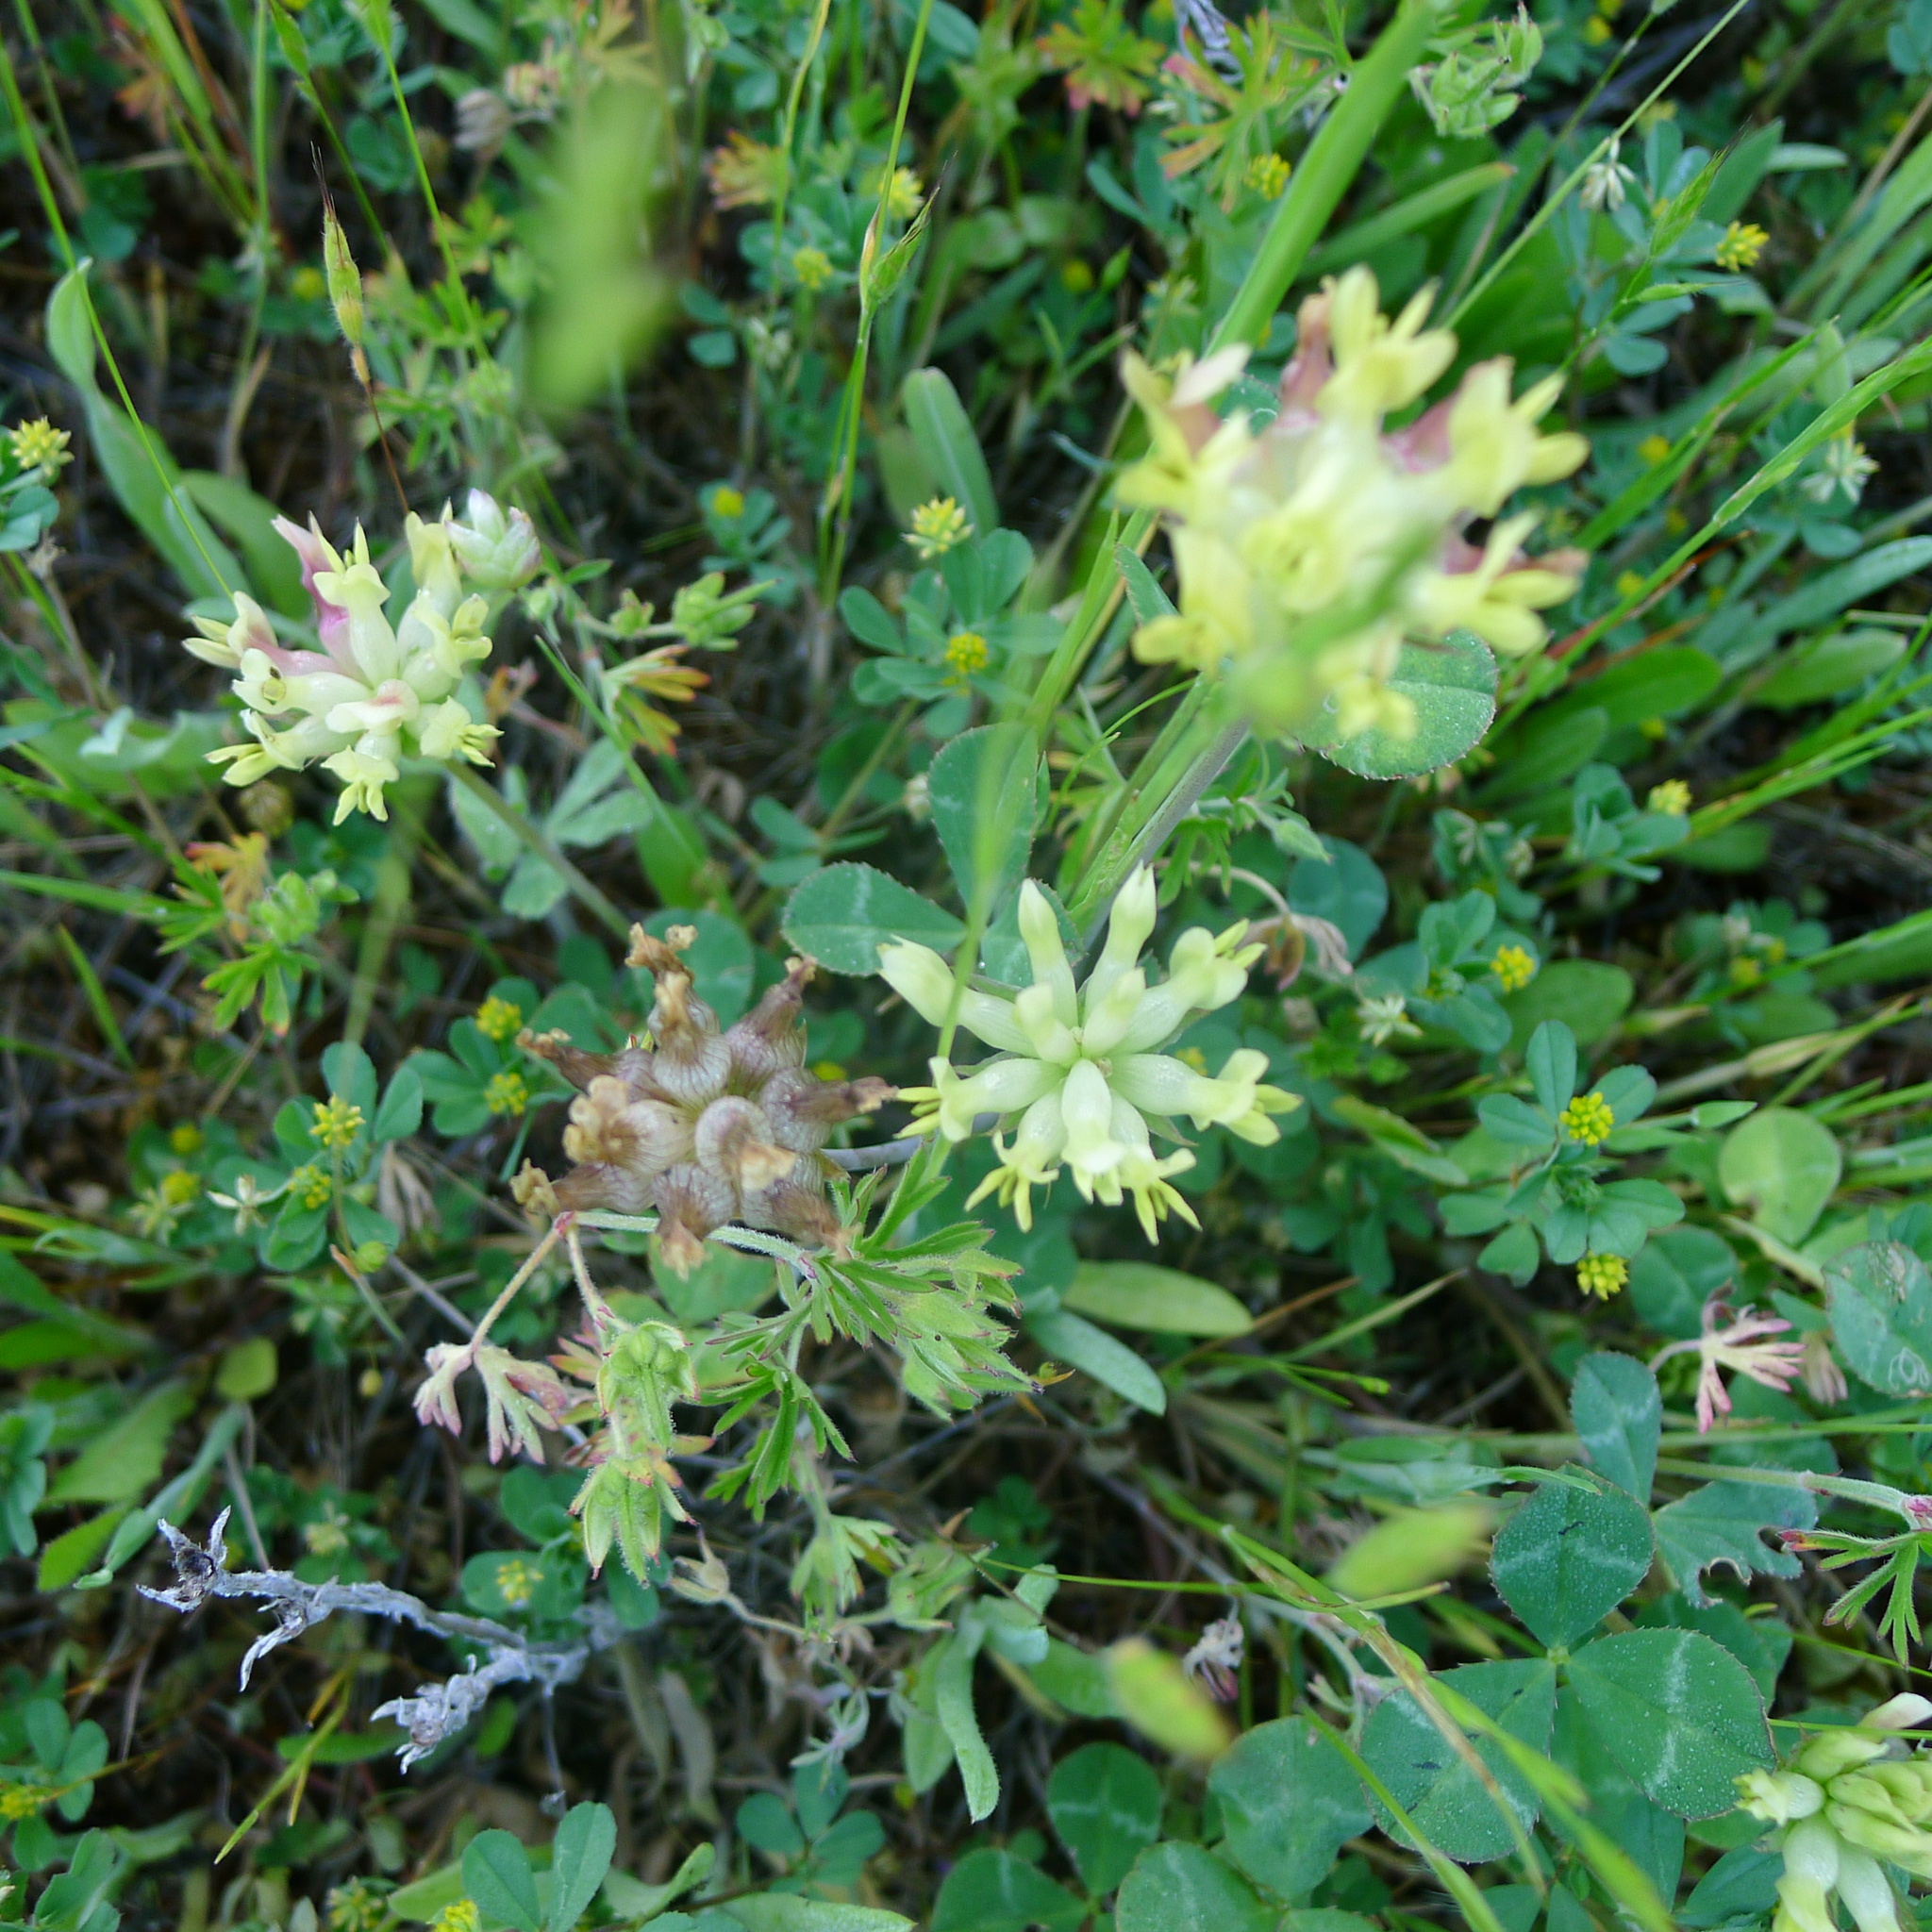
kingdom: Plantae
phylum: Tracheophyta
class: Magnoliopsida
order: Fabales
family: Fabaceae
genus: Trifolium
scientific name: Trifolium fucatum
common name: Puff clover
